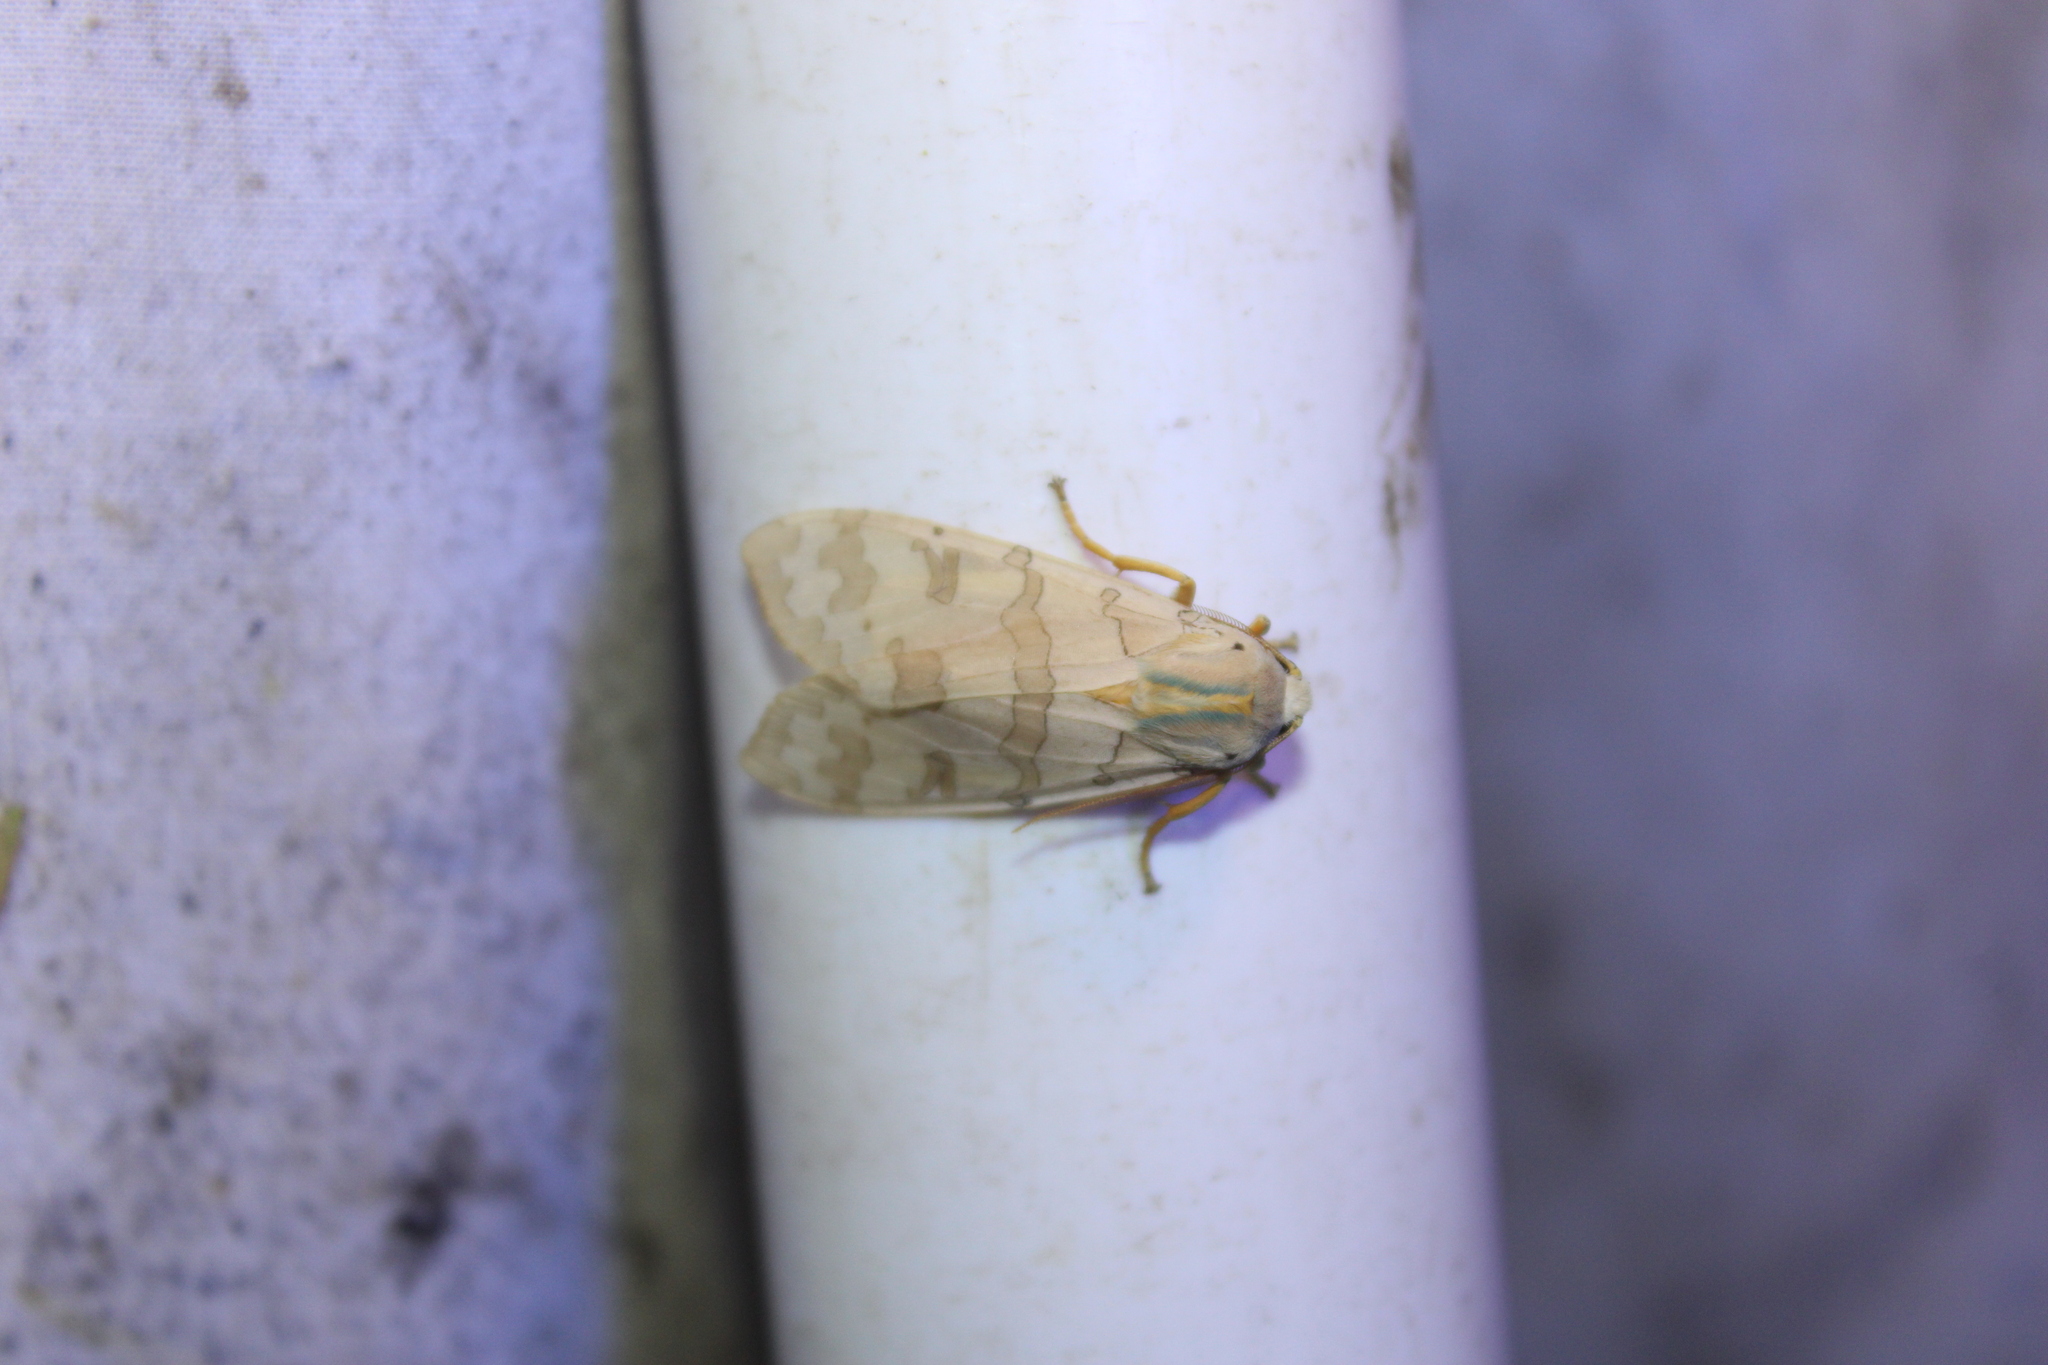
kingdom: Animalia
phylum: Arthropoda
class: Insecta
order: Lepidoptera
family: Erebidae
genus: Halysidota
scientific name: Halysidota
